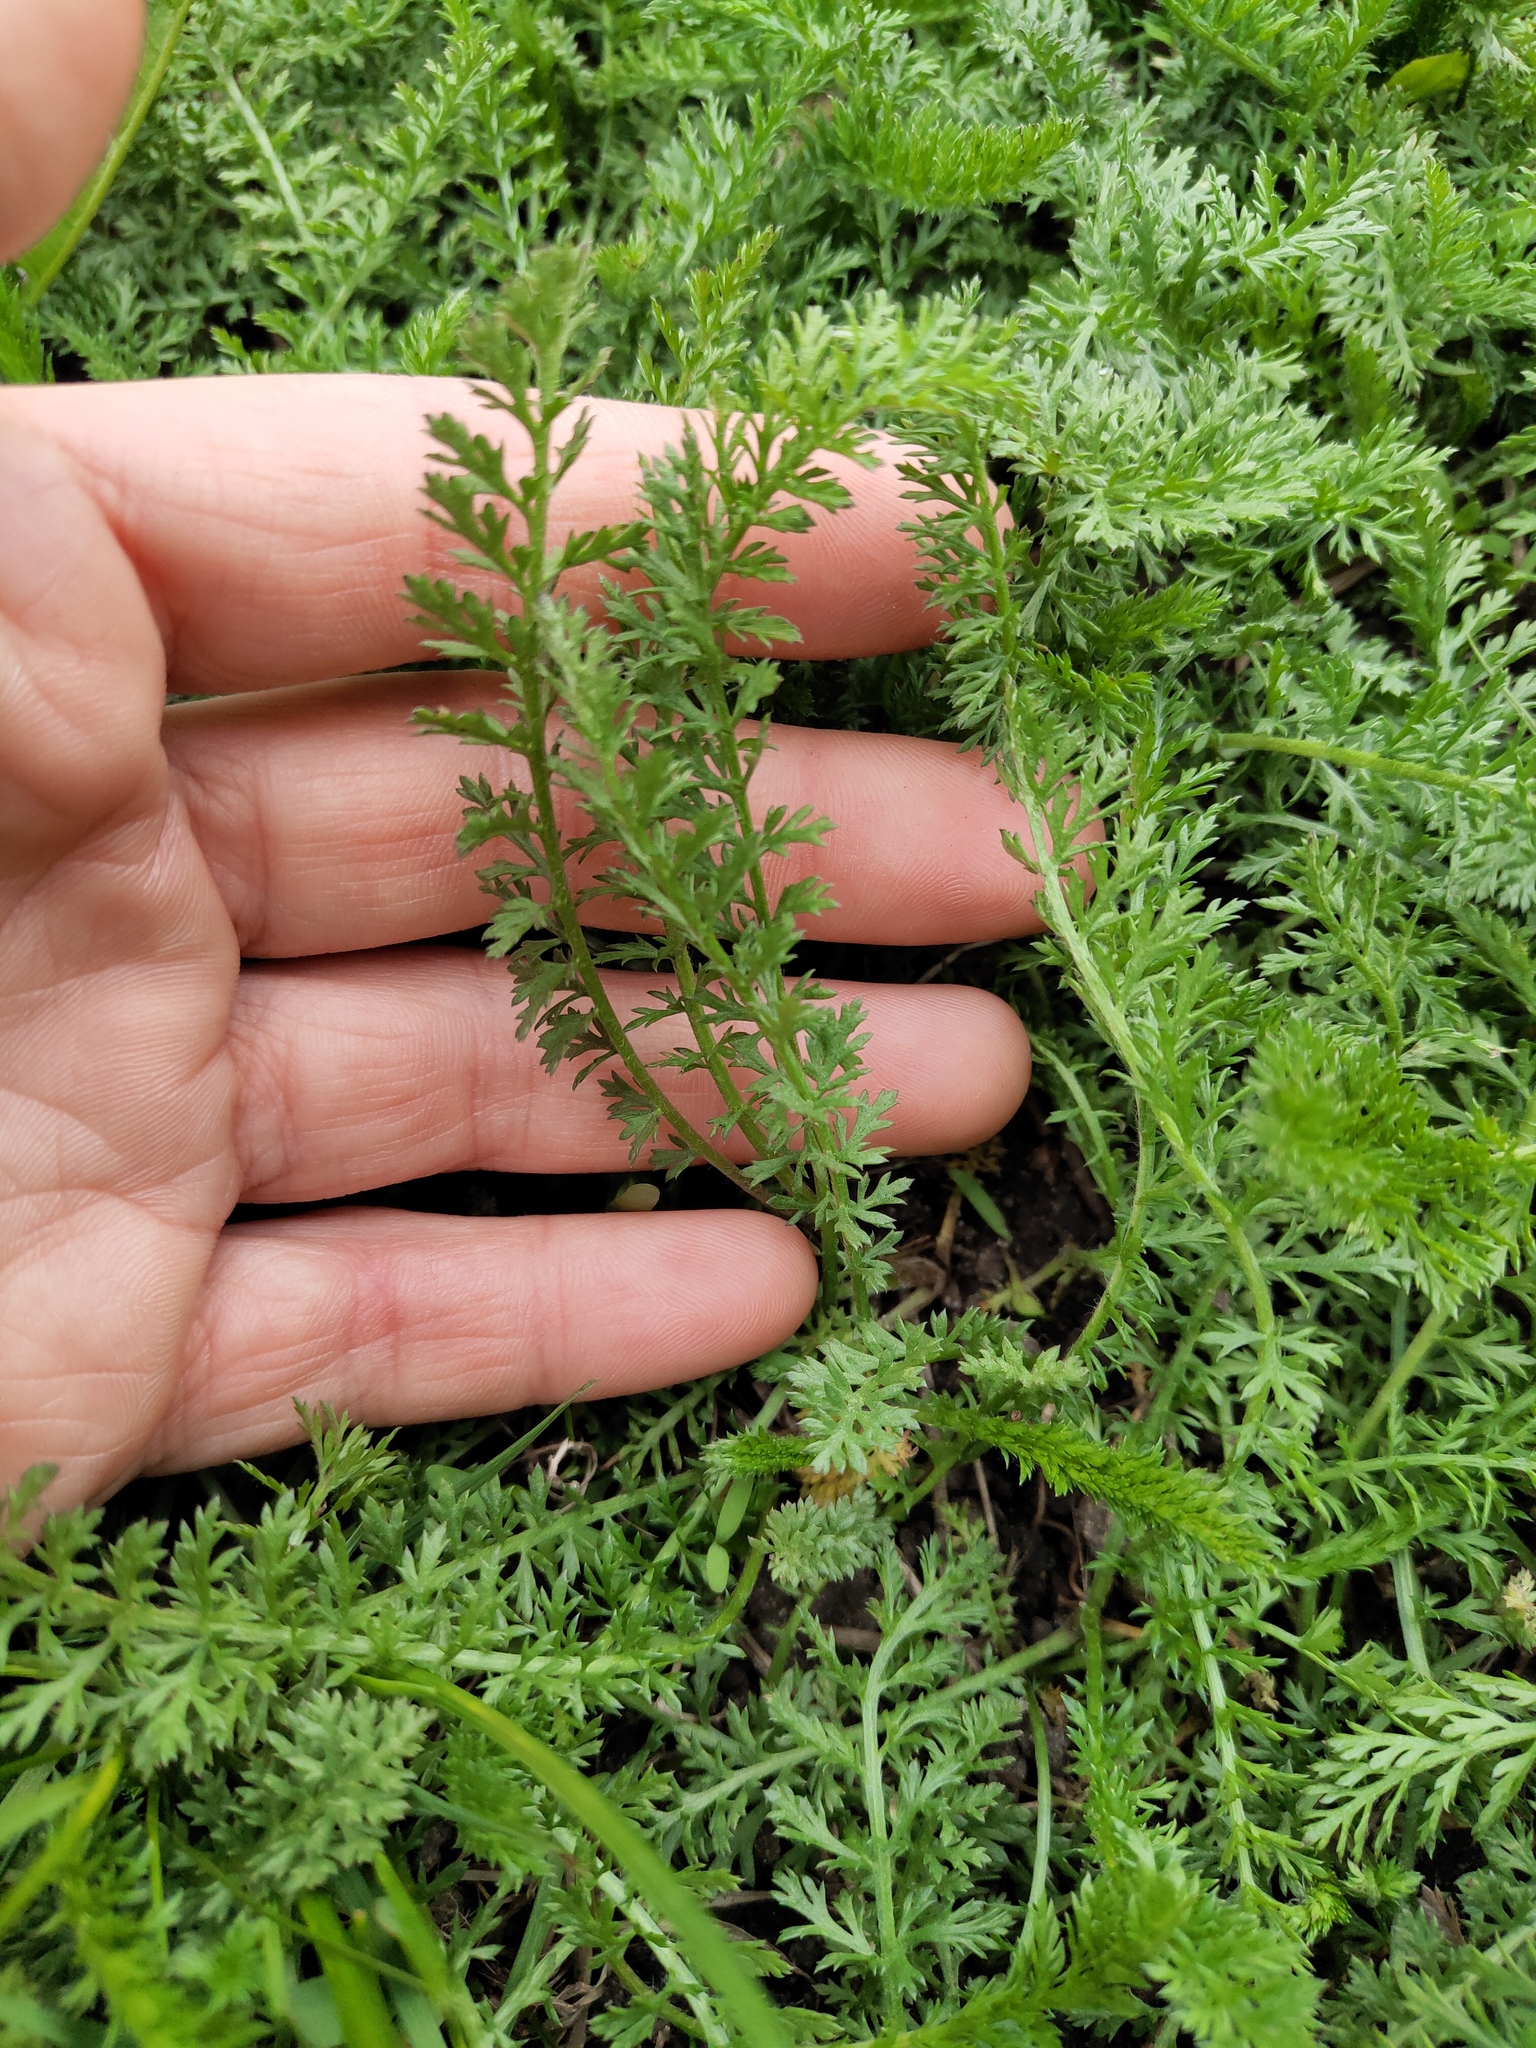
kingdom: Plantae
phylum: Tracheophyta
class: Magnoliopsida
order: Asterales
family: Asteraceae
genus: Achillea
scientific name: Achillea millefolium
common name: Yarrow
